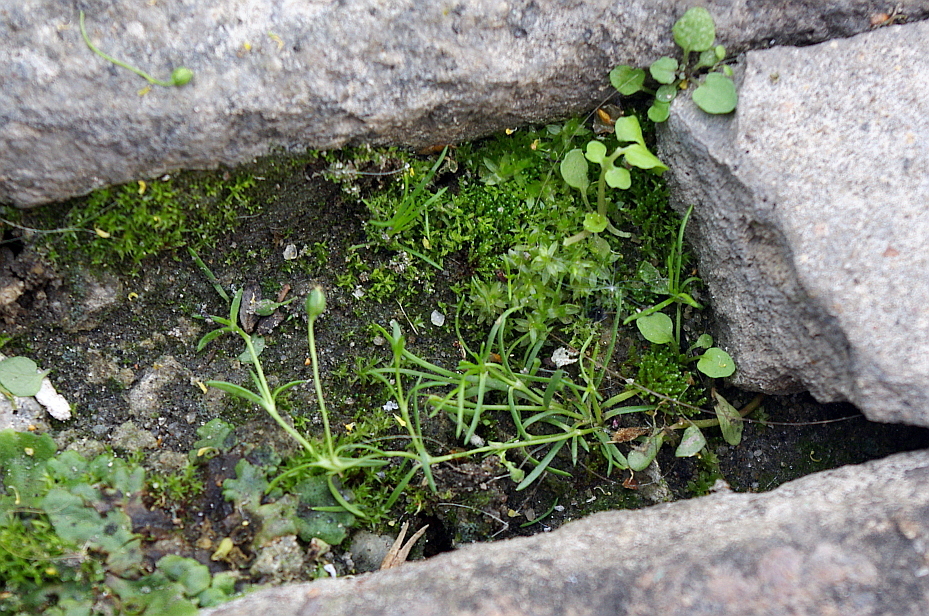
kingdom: Plantae
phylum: Tracheophyta
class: Magnoliopsida
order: Caryophyllales
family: Caryophyllaceae
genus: Sagina
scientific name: Sagina procumbens
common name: Procumbent pearlwort
